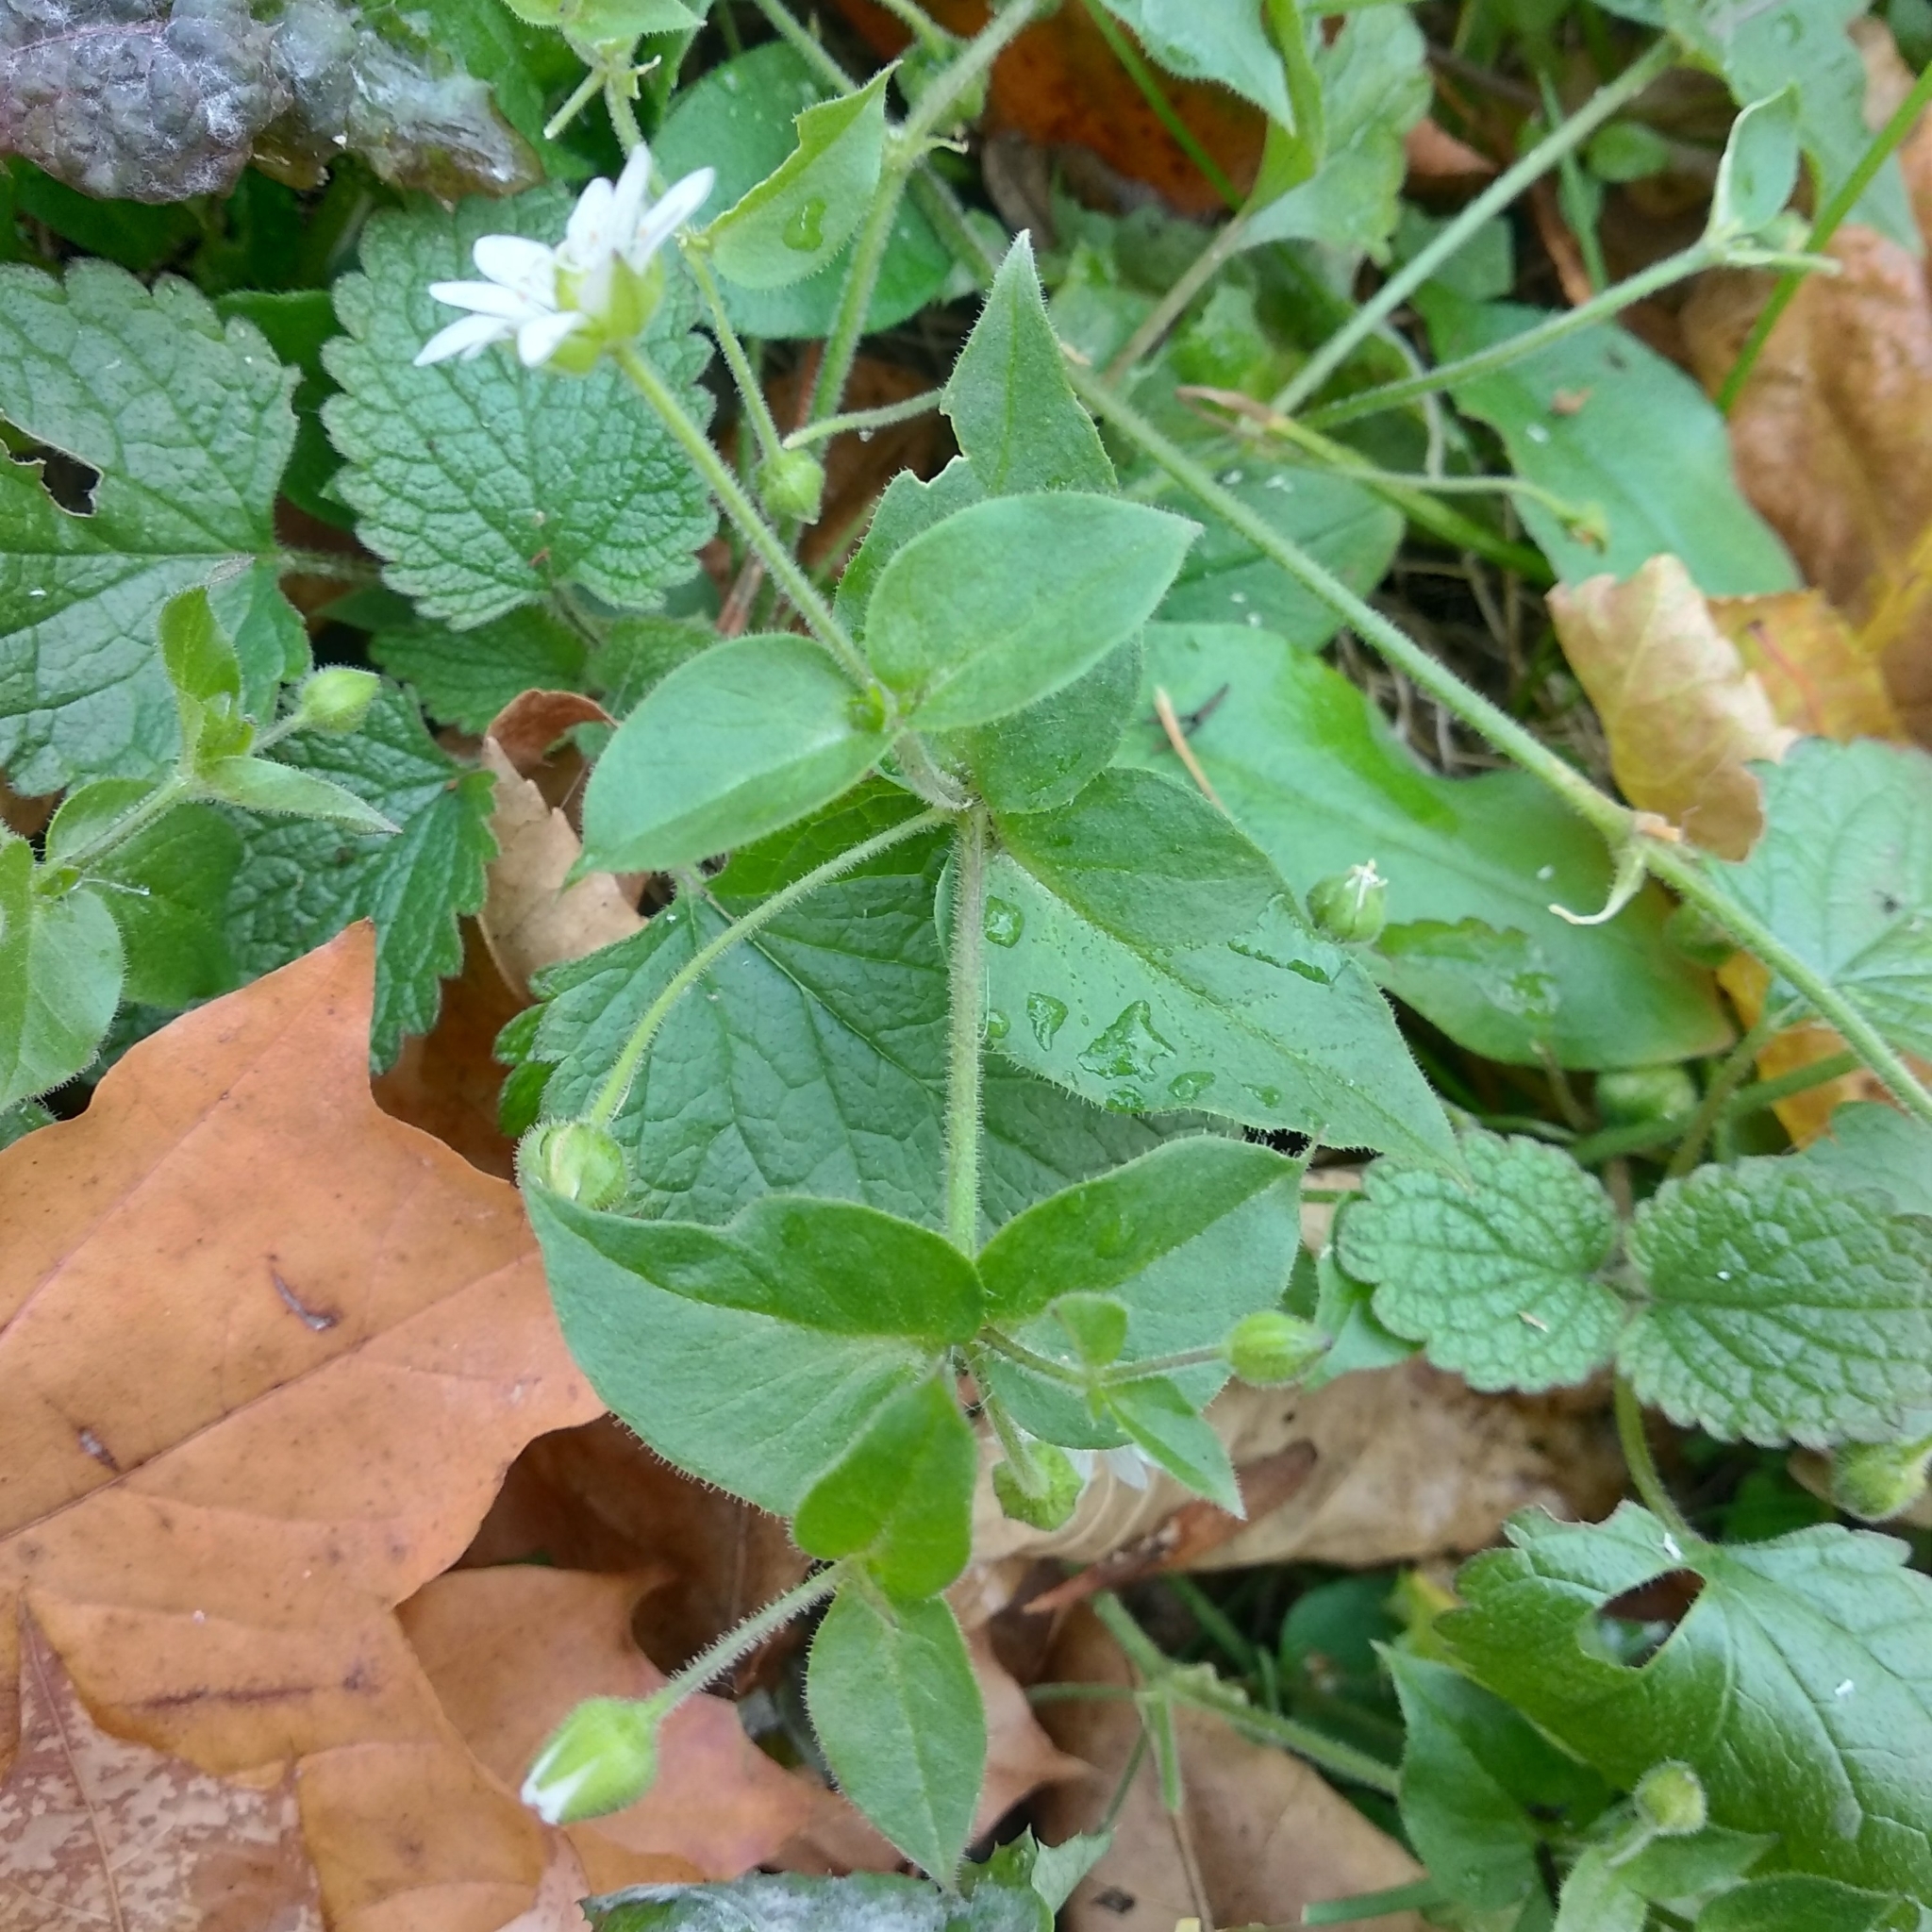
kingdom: Plantae
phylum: Tracheophyta
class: Magnoliopsida
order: Caryophyllales
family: Caryophyllaceae
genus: Stellaria
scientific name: Stellaria aquatica
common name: Water chickweed
